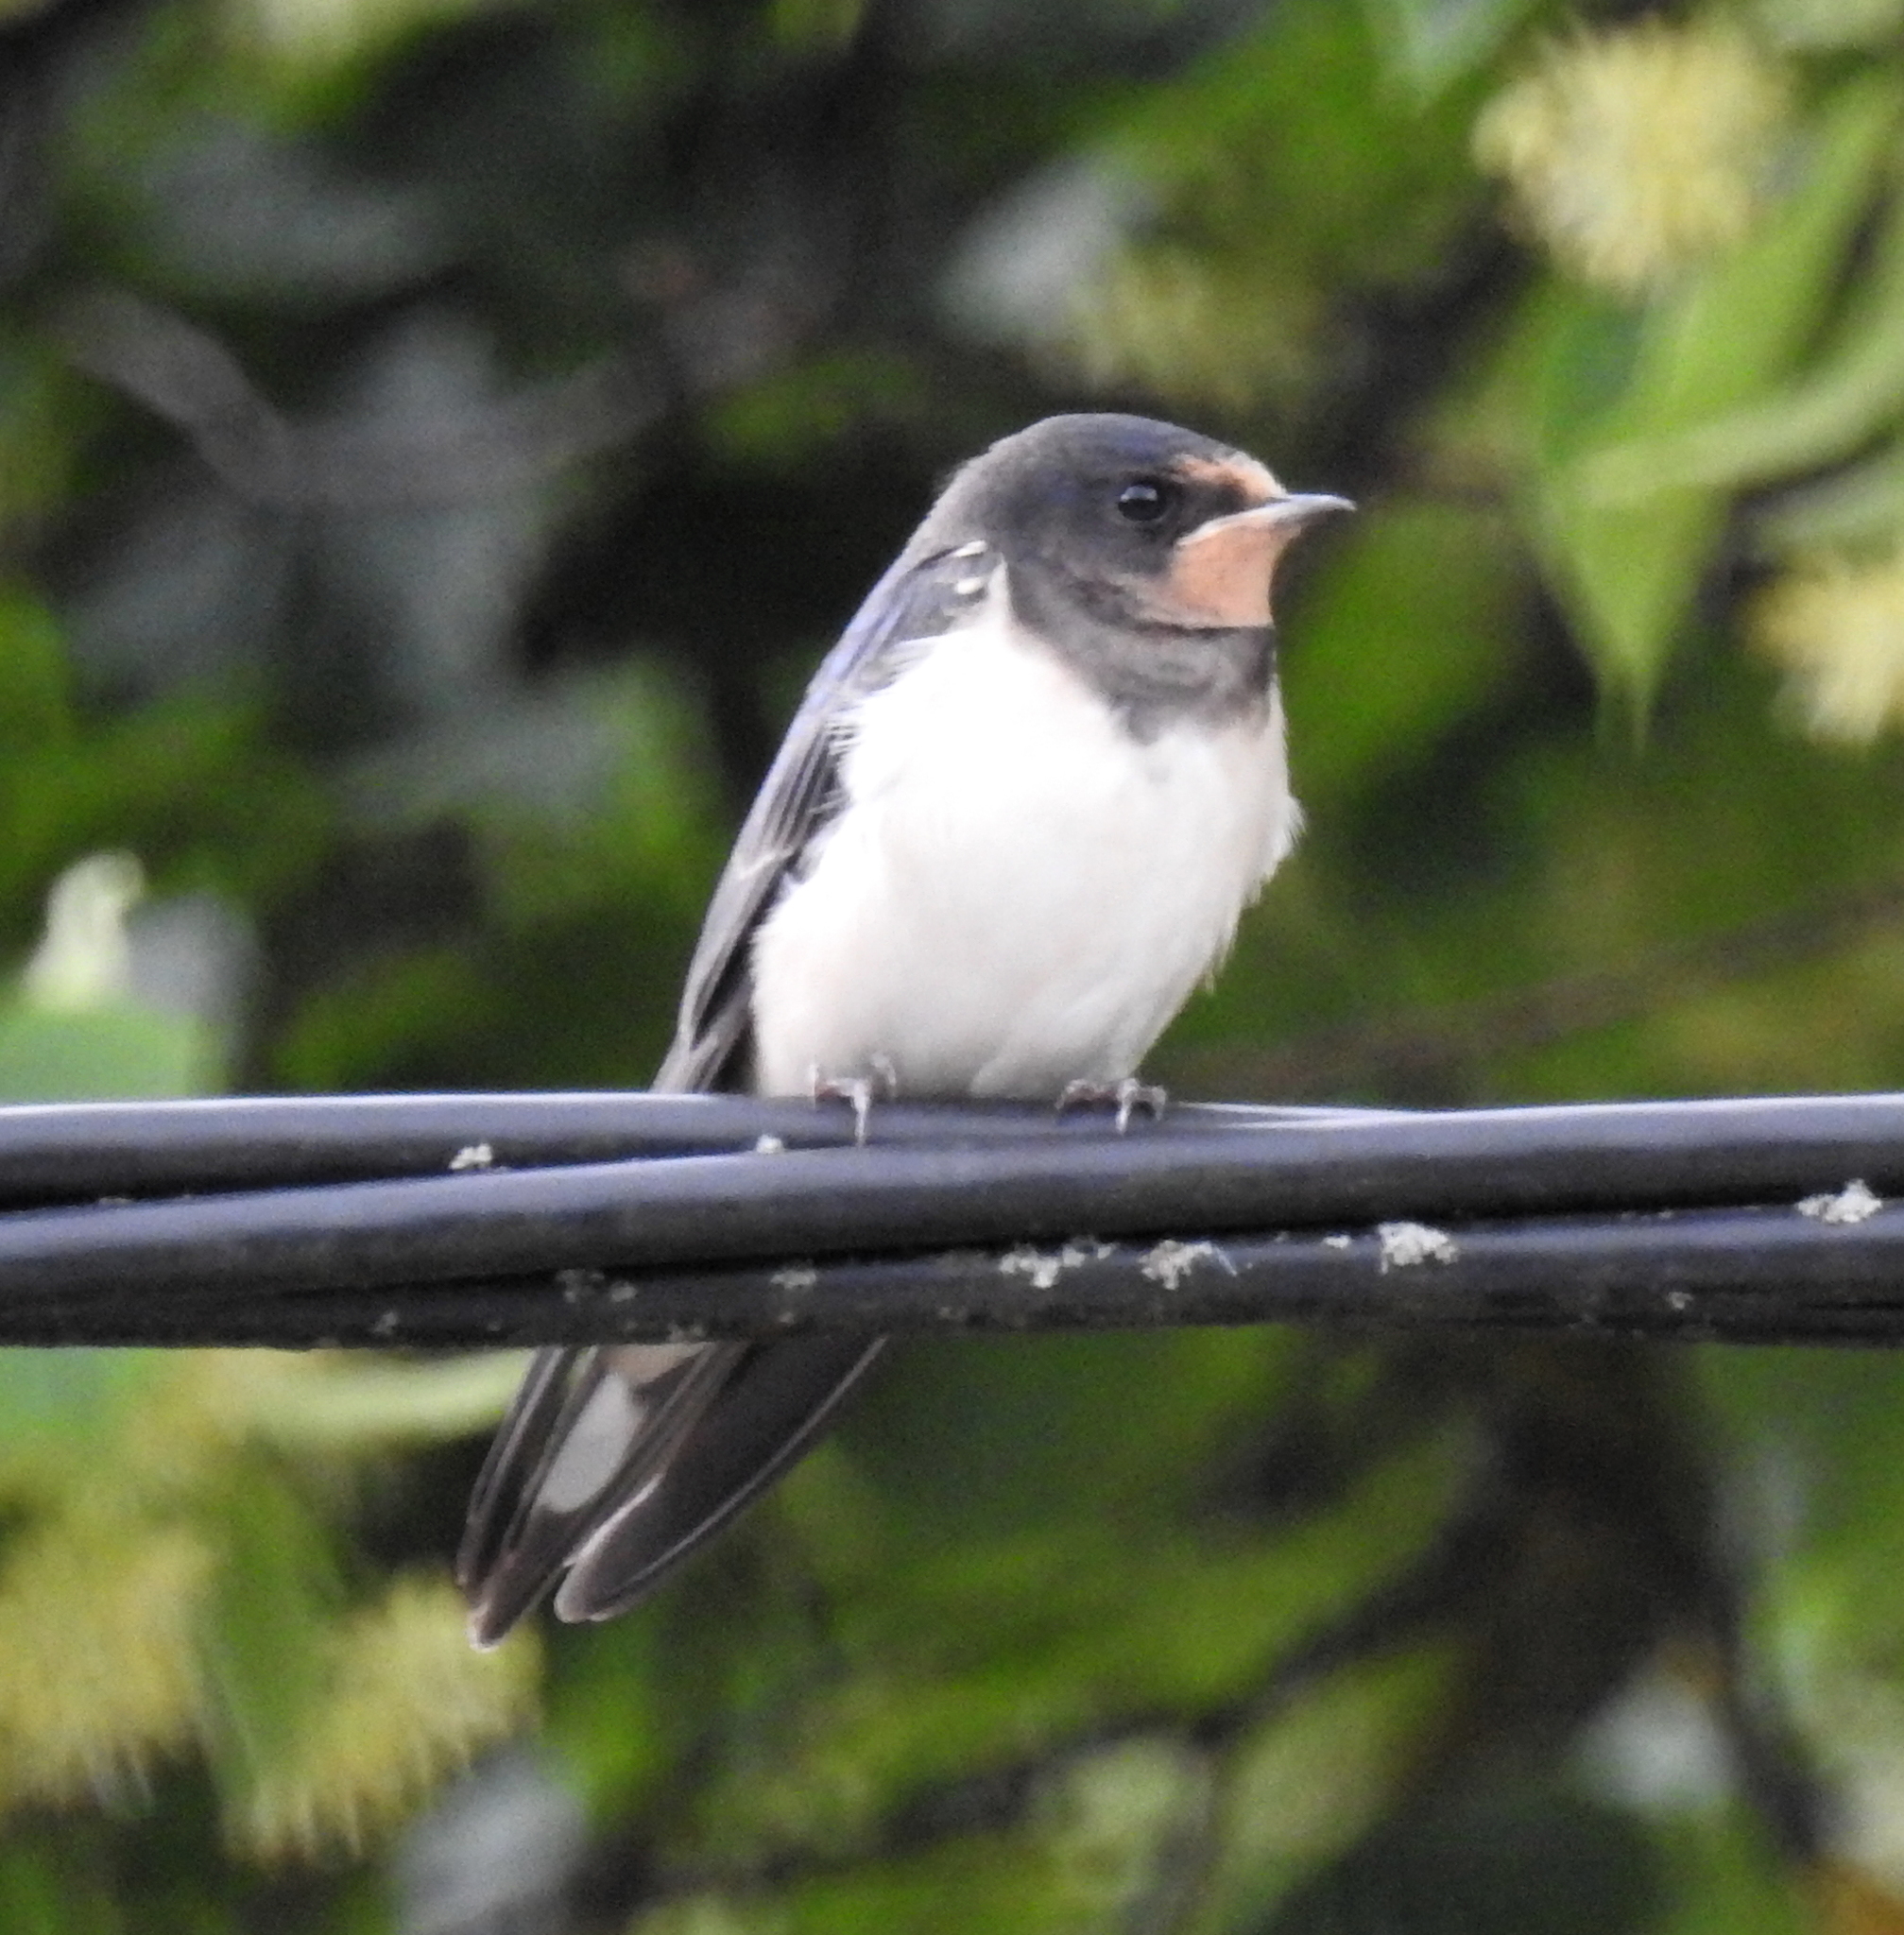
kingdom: Animalia
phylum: Chordata
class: Aves
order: Passeriformes
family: Hirundinidae
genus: Hirundo
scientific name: Hirundo rustica
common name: Barn swallow
